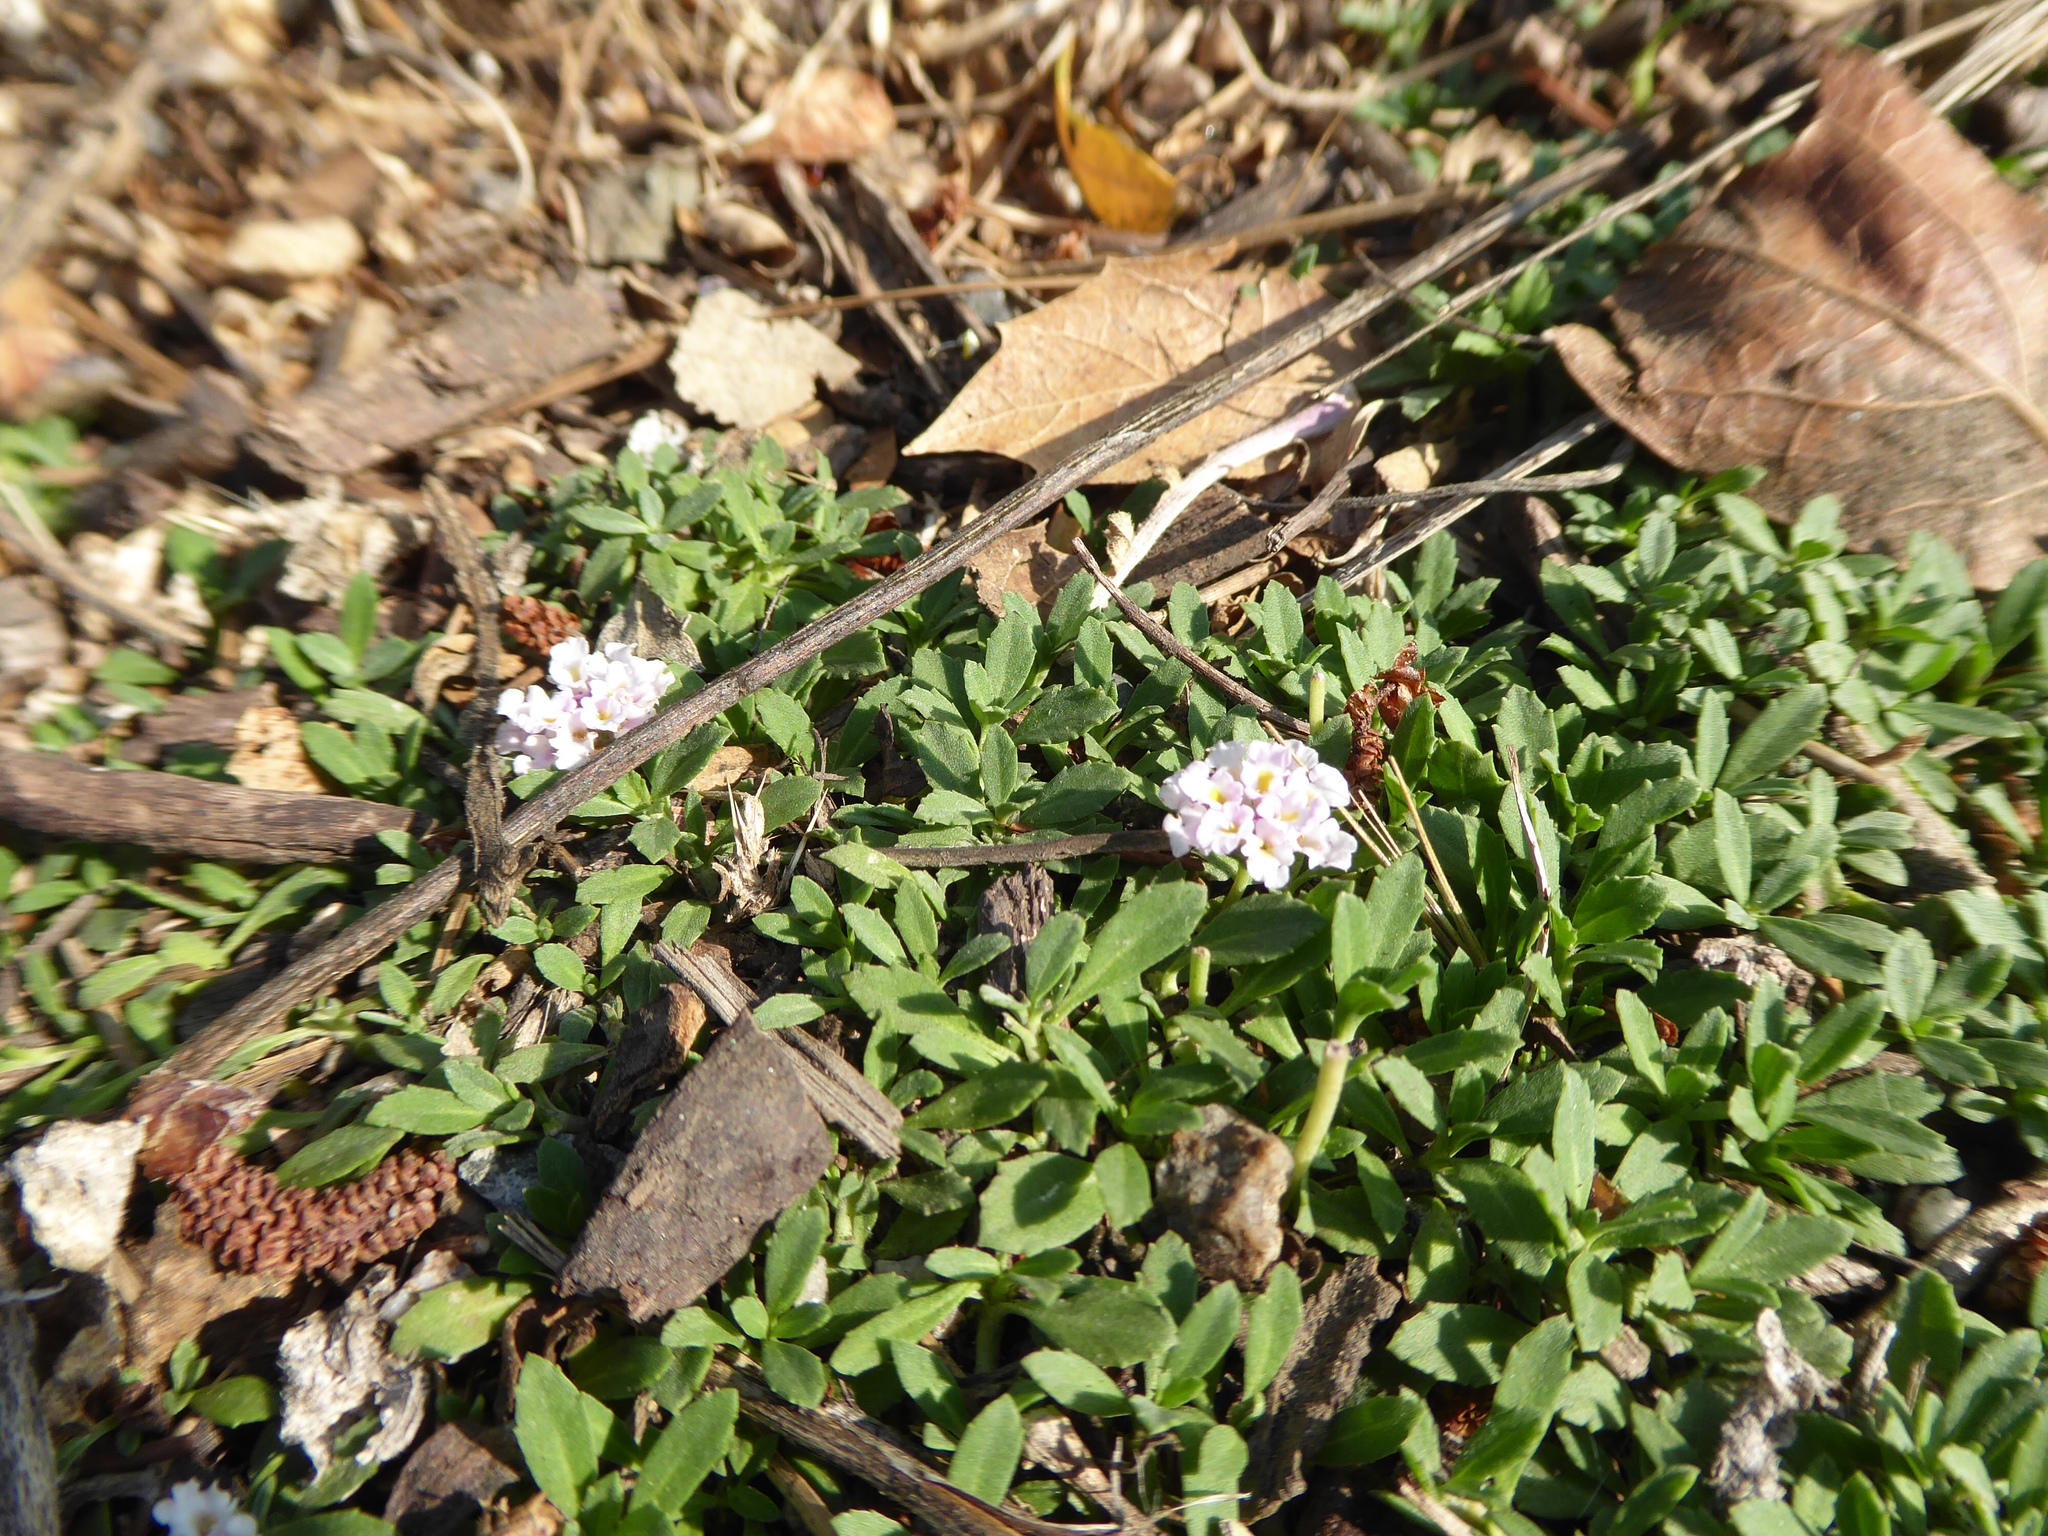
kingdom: Plantae
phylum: Tracheophyta
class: Magnoliopsida
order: Lamiales
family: Verbenaceae
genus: Phyla
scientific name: Phyla nodiflora
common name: Frogfruit
